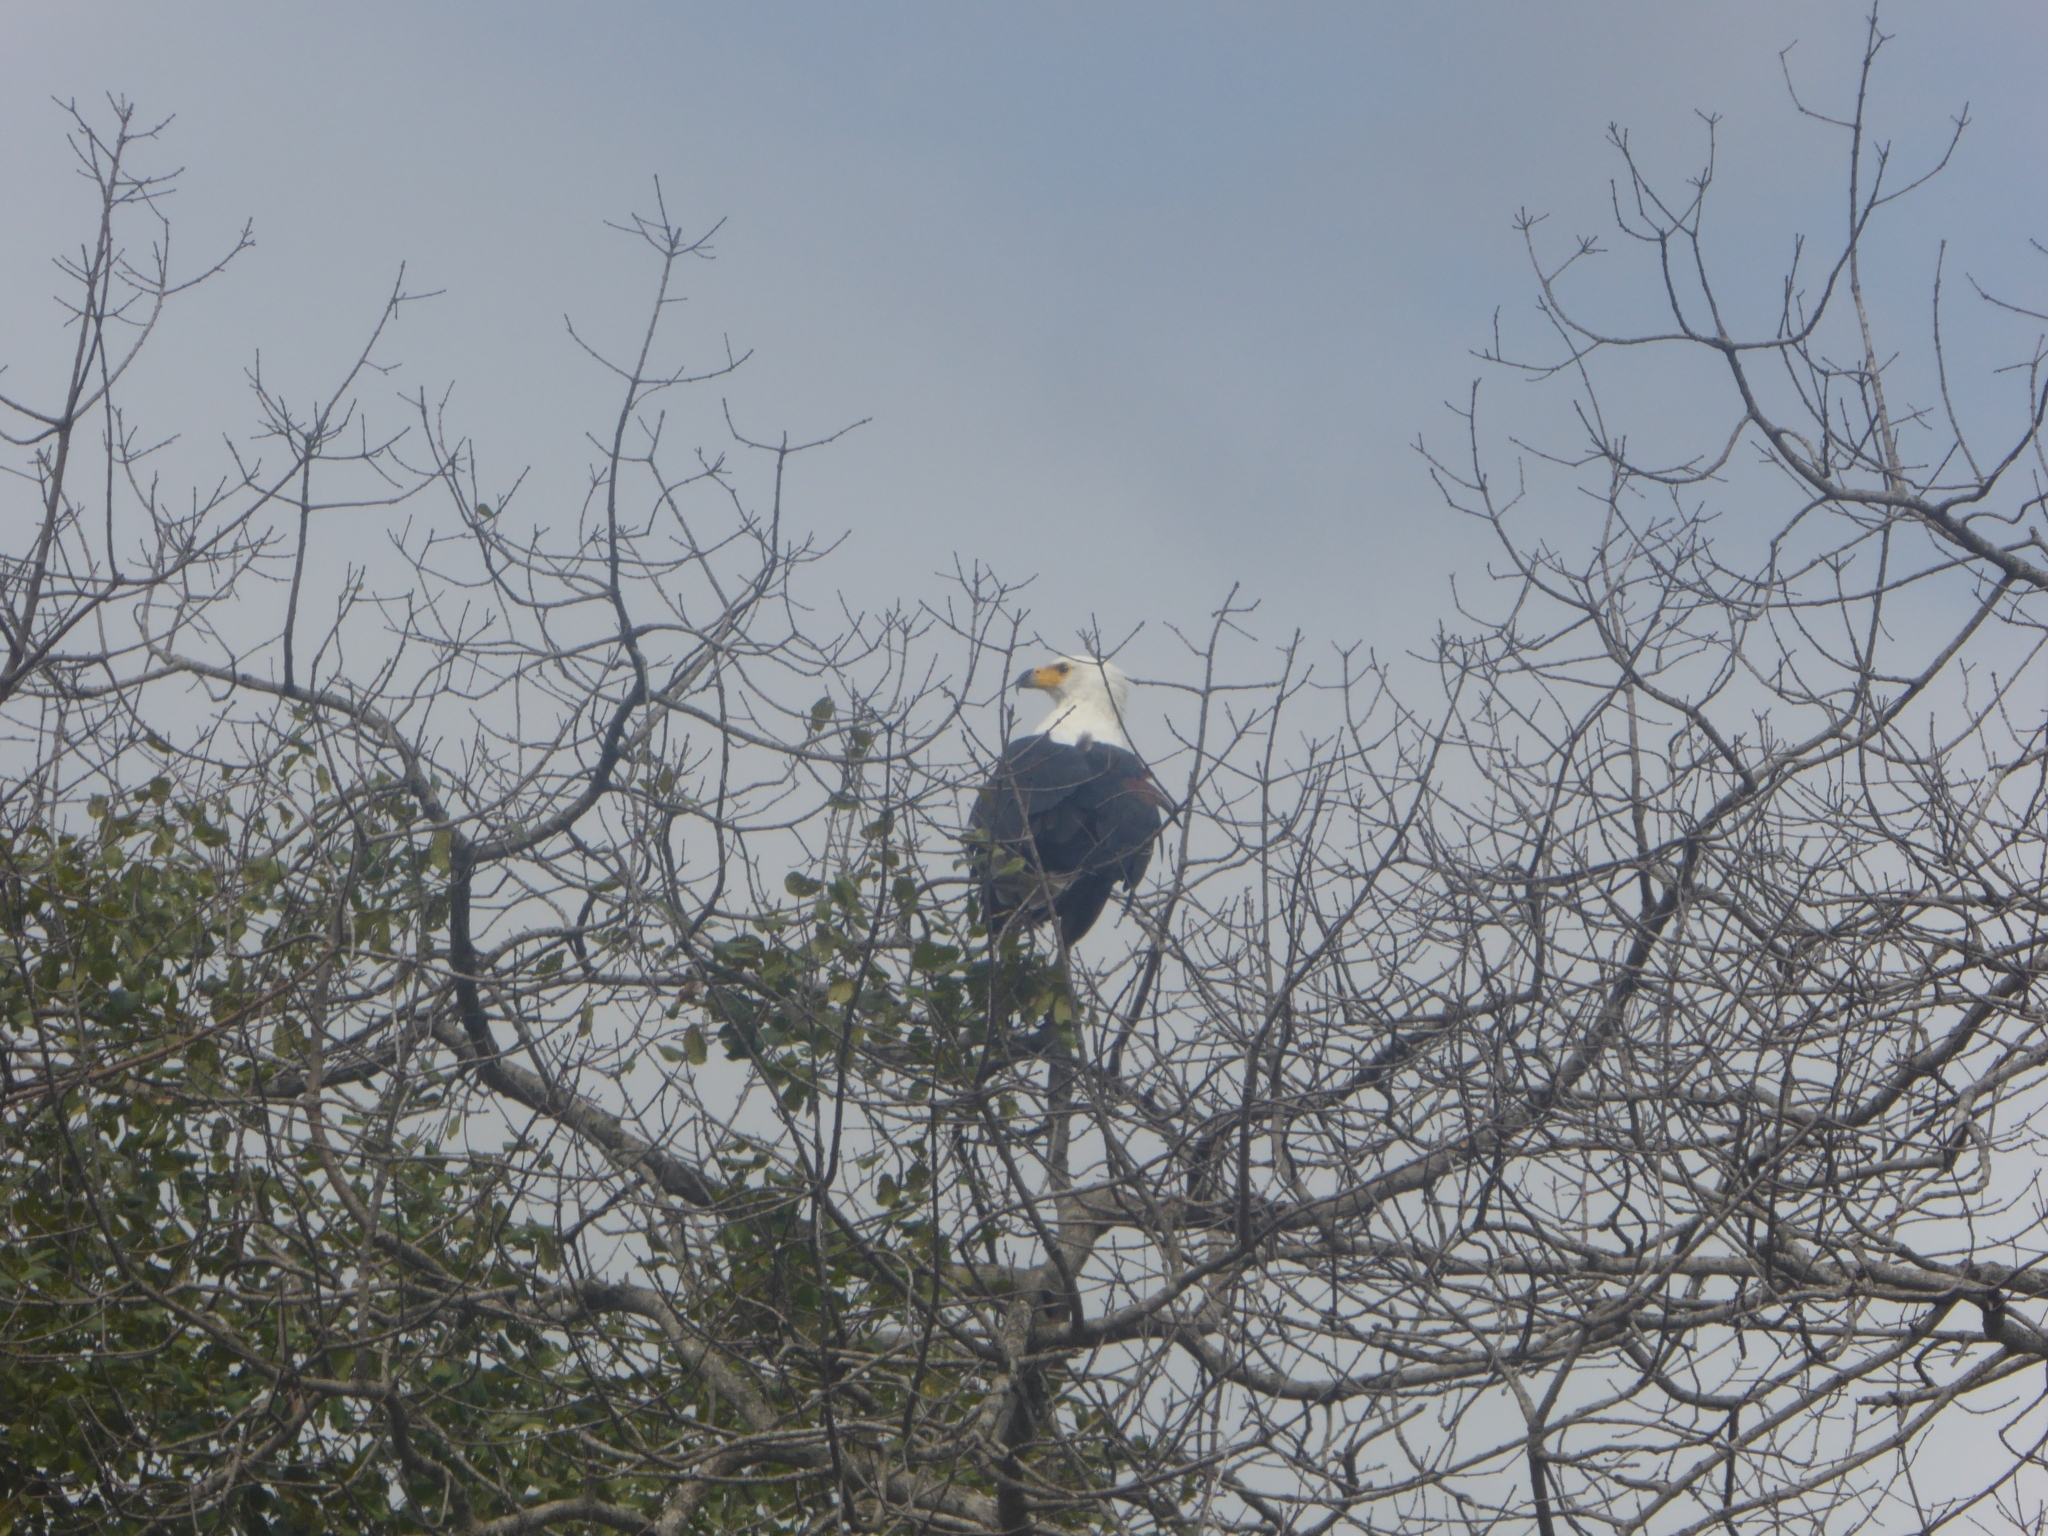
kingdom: Animalia
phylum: Chordata
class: Aves
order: Accipitriformes
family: Accipitridae
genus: Haliaeetus
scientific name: Haliaeetus vocifer
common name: African fish eagle
